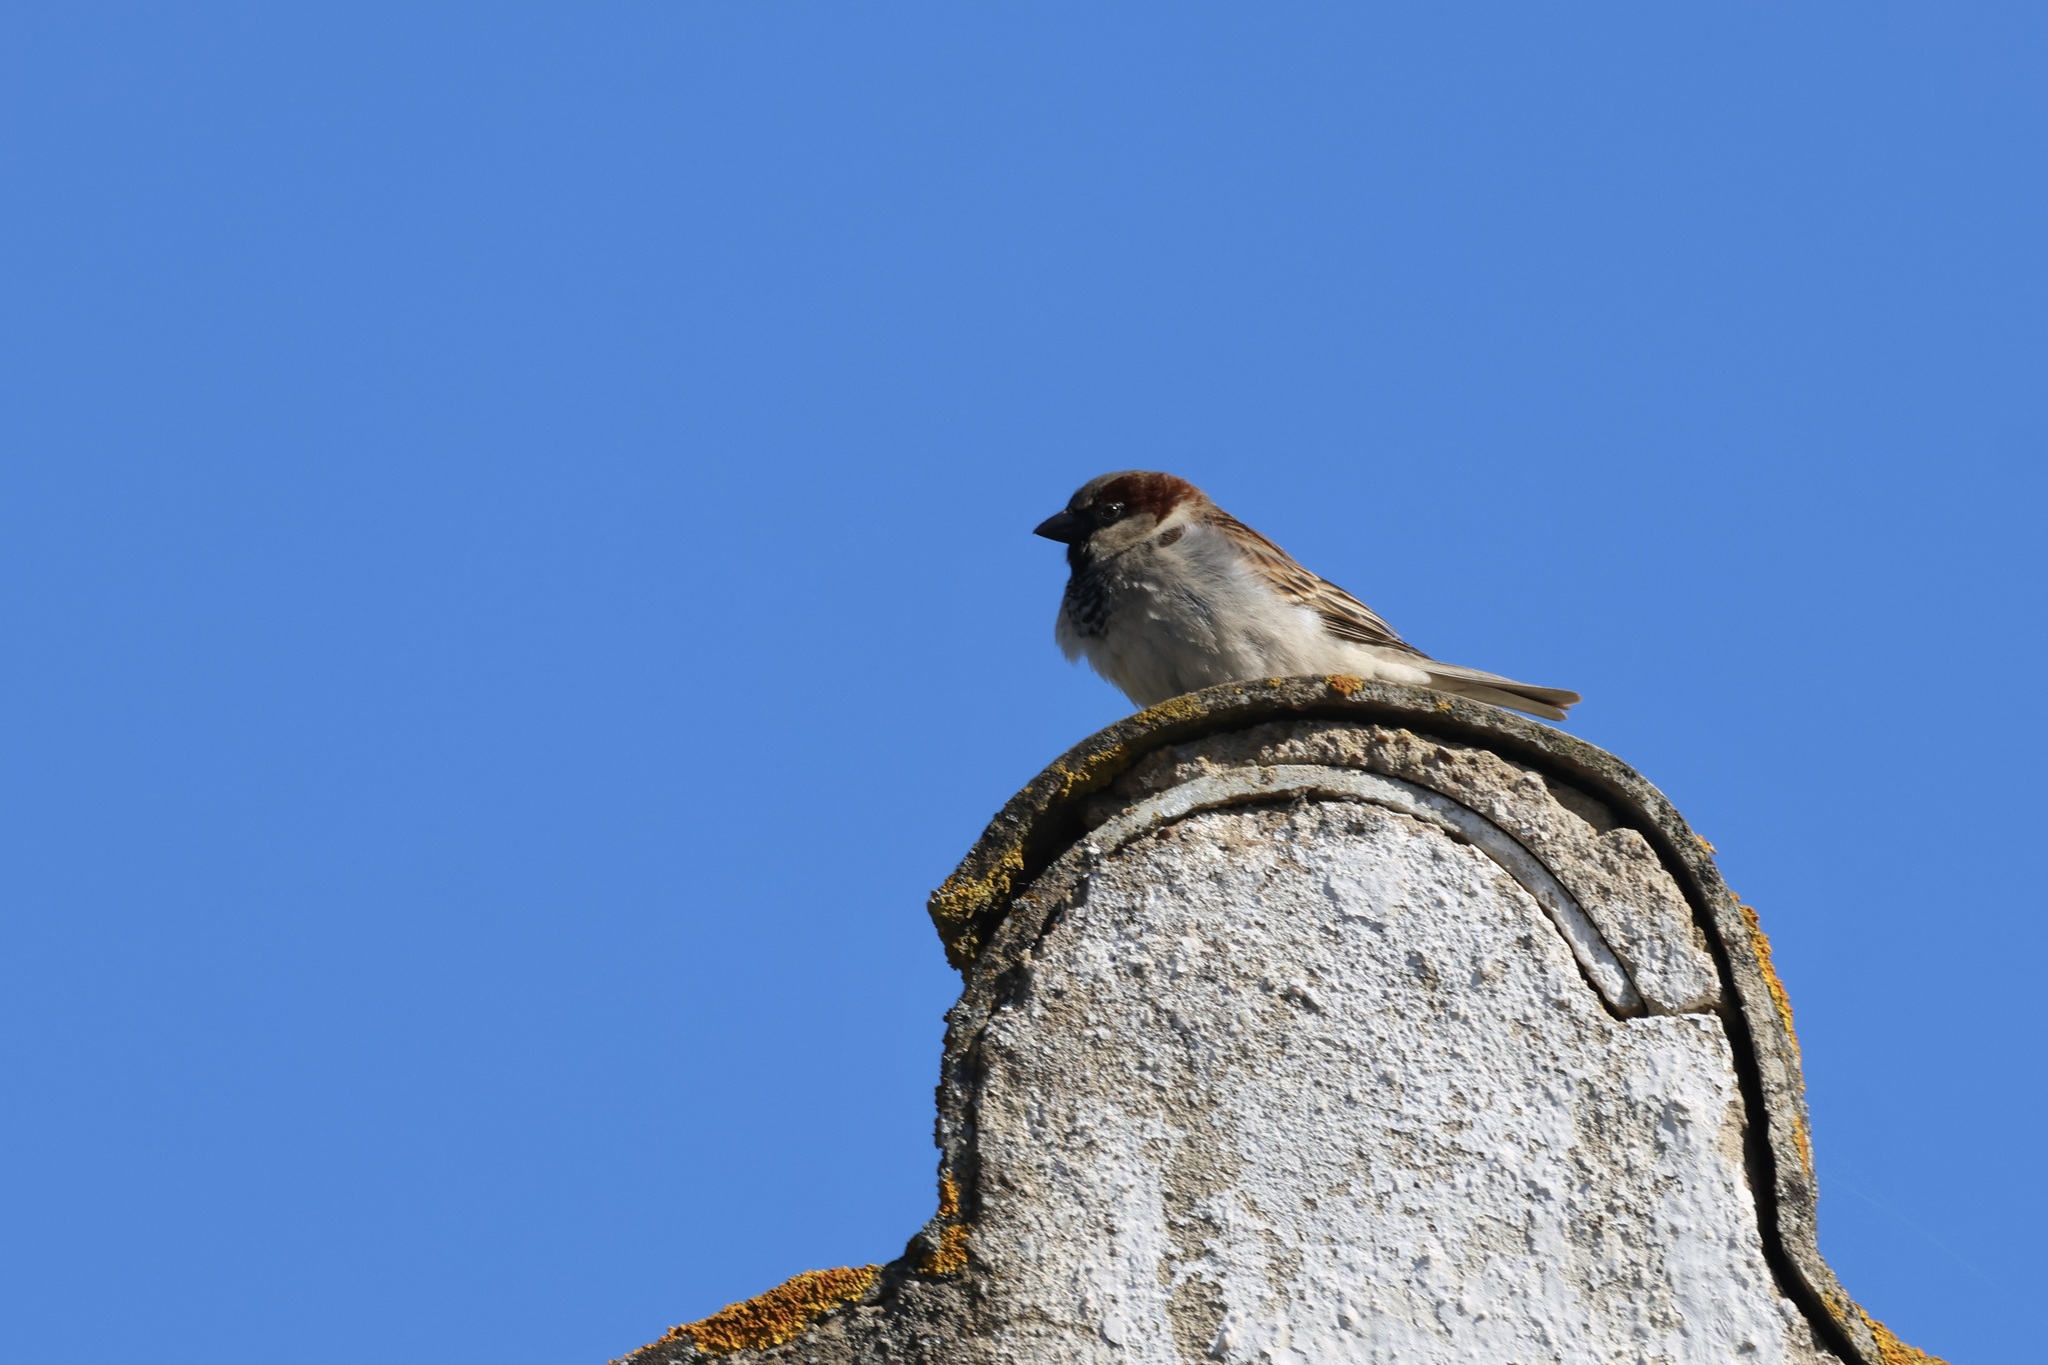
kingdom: Animalia
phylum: Chordata
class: Aves
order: Passeriformes
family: Passeridae
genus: Passer
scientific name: Passer domesticus
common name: House sparrow
